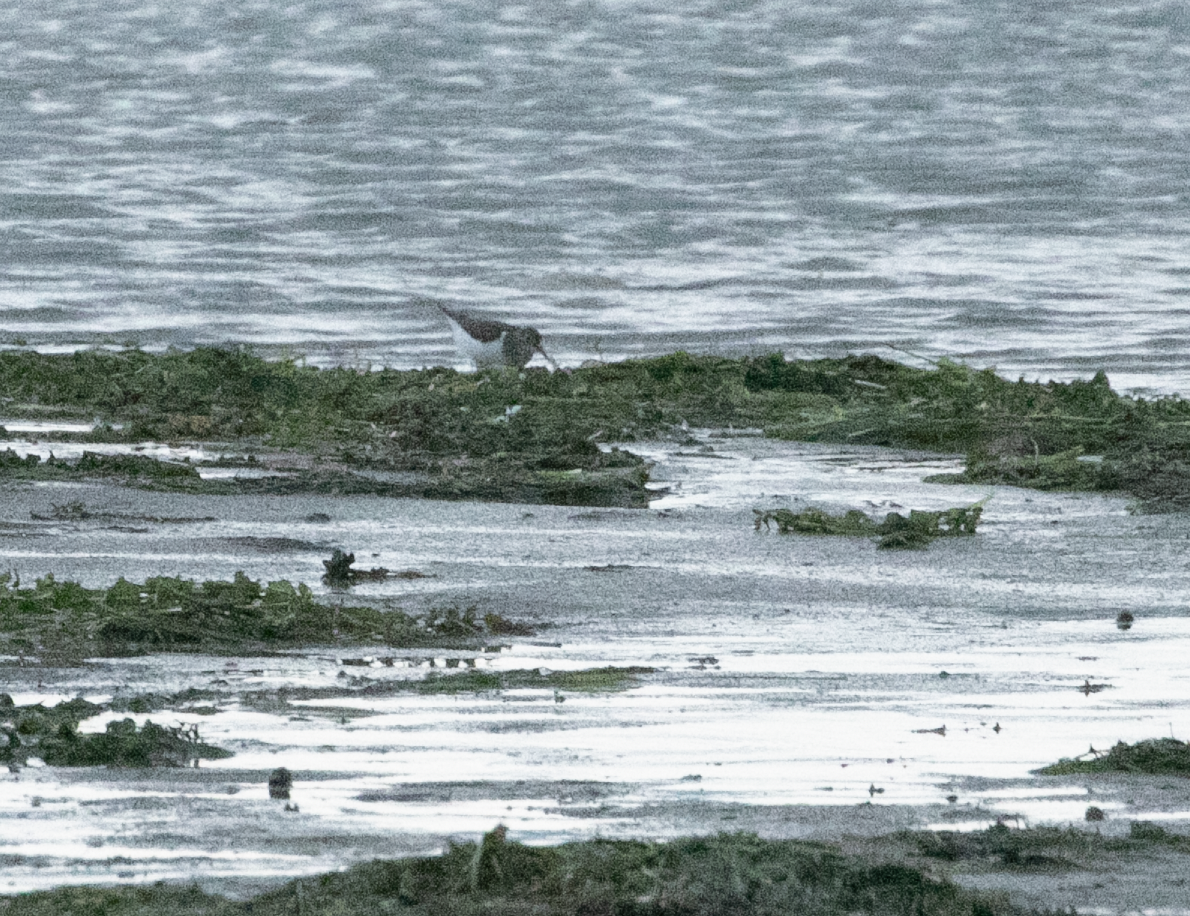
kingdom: Animalia
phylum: Chordata
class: Aves
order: Charadriiformes
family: Scolopacidae
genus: Actitis
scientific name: Actitis hypoleucos
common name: Common sandpiper
